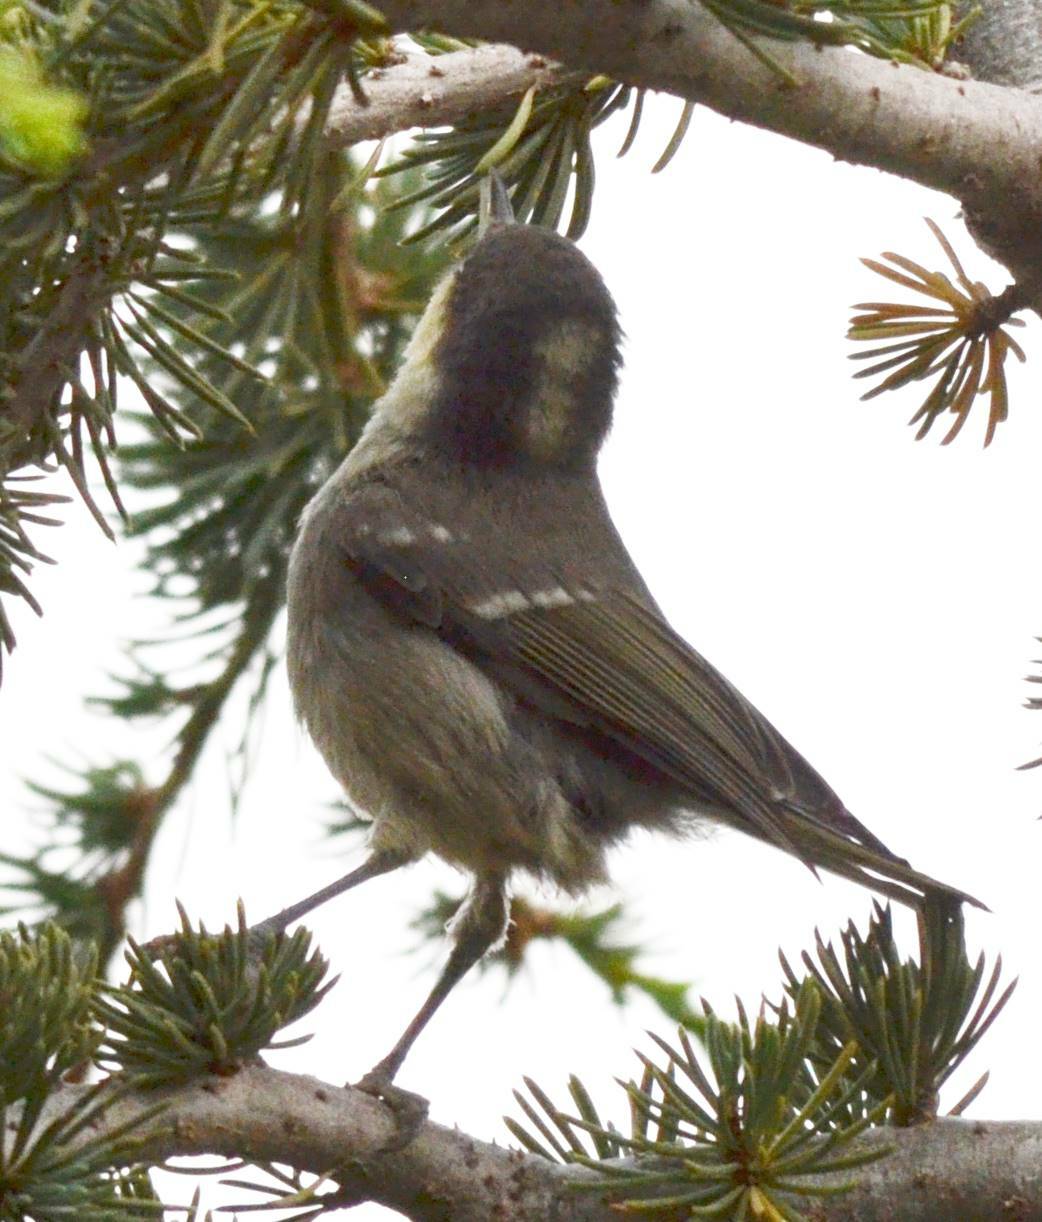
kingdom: Animalia
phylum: Chordata
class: Aves
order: Passeriformes
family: Paridae
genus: Periparus
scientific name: Periparus ater
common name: Coal tit
